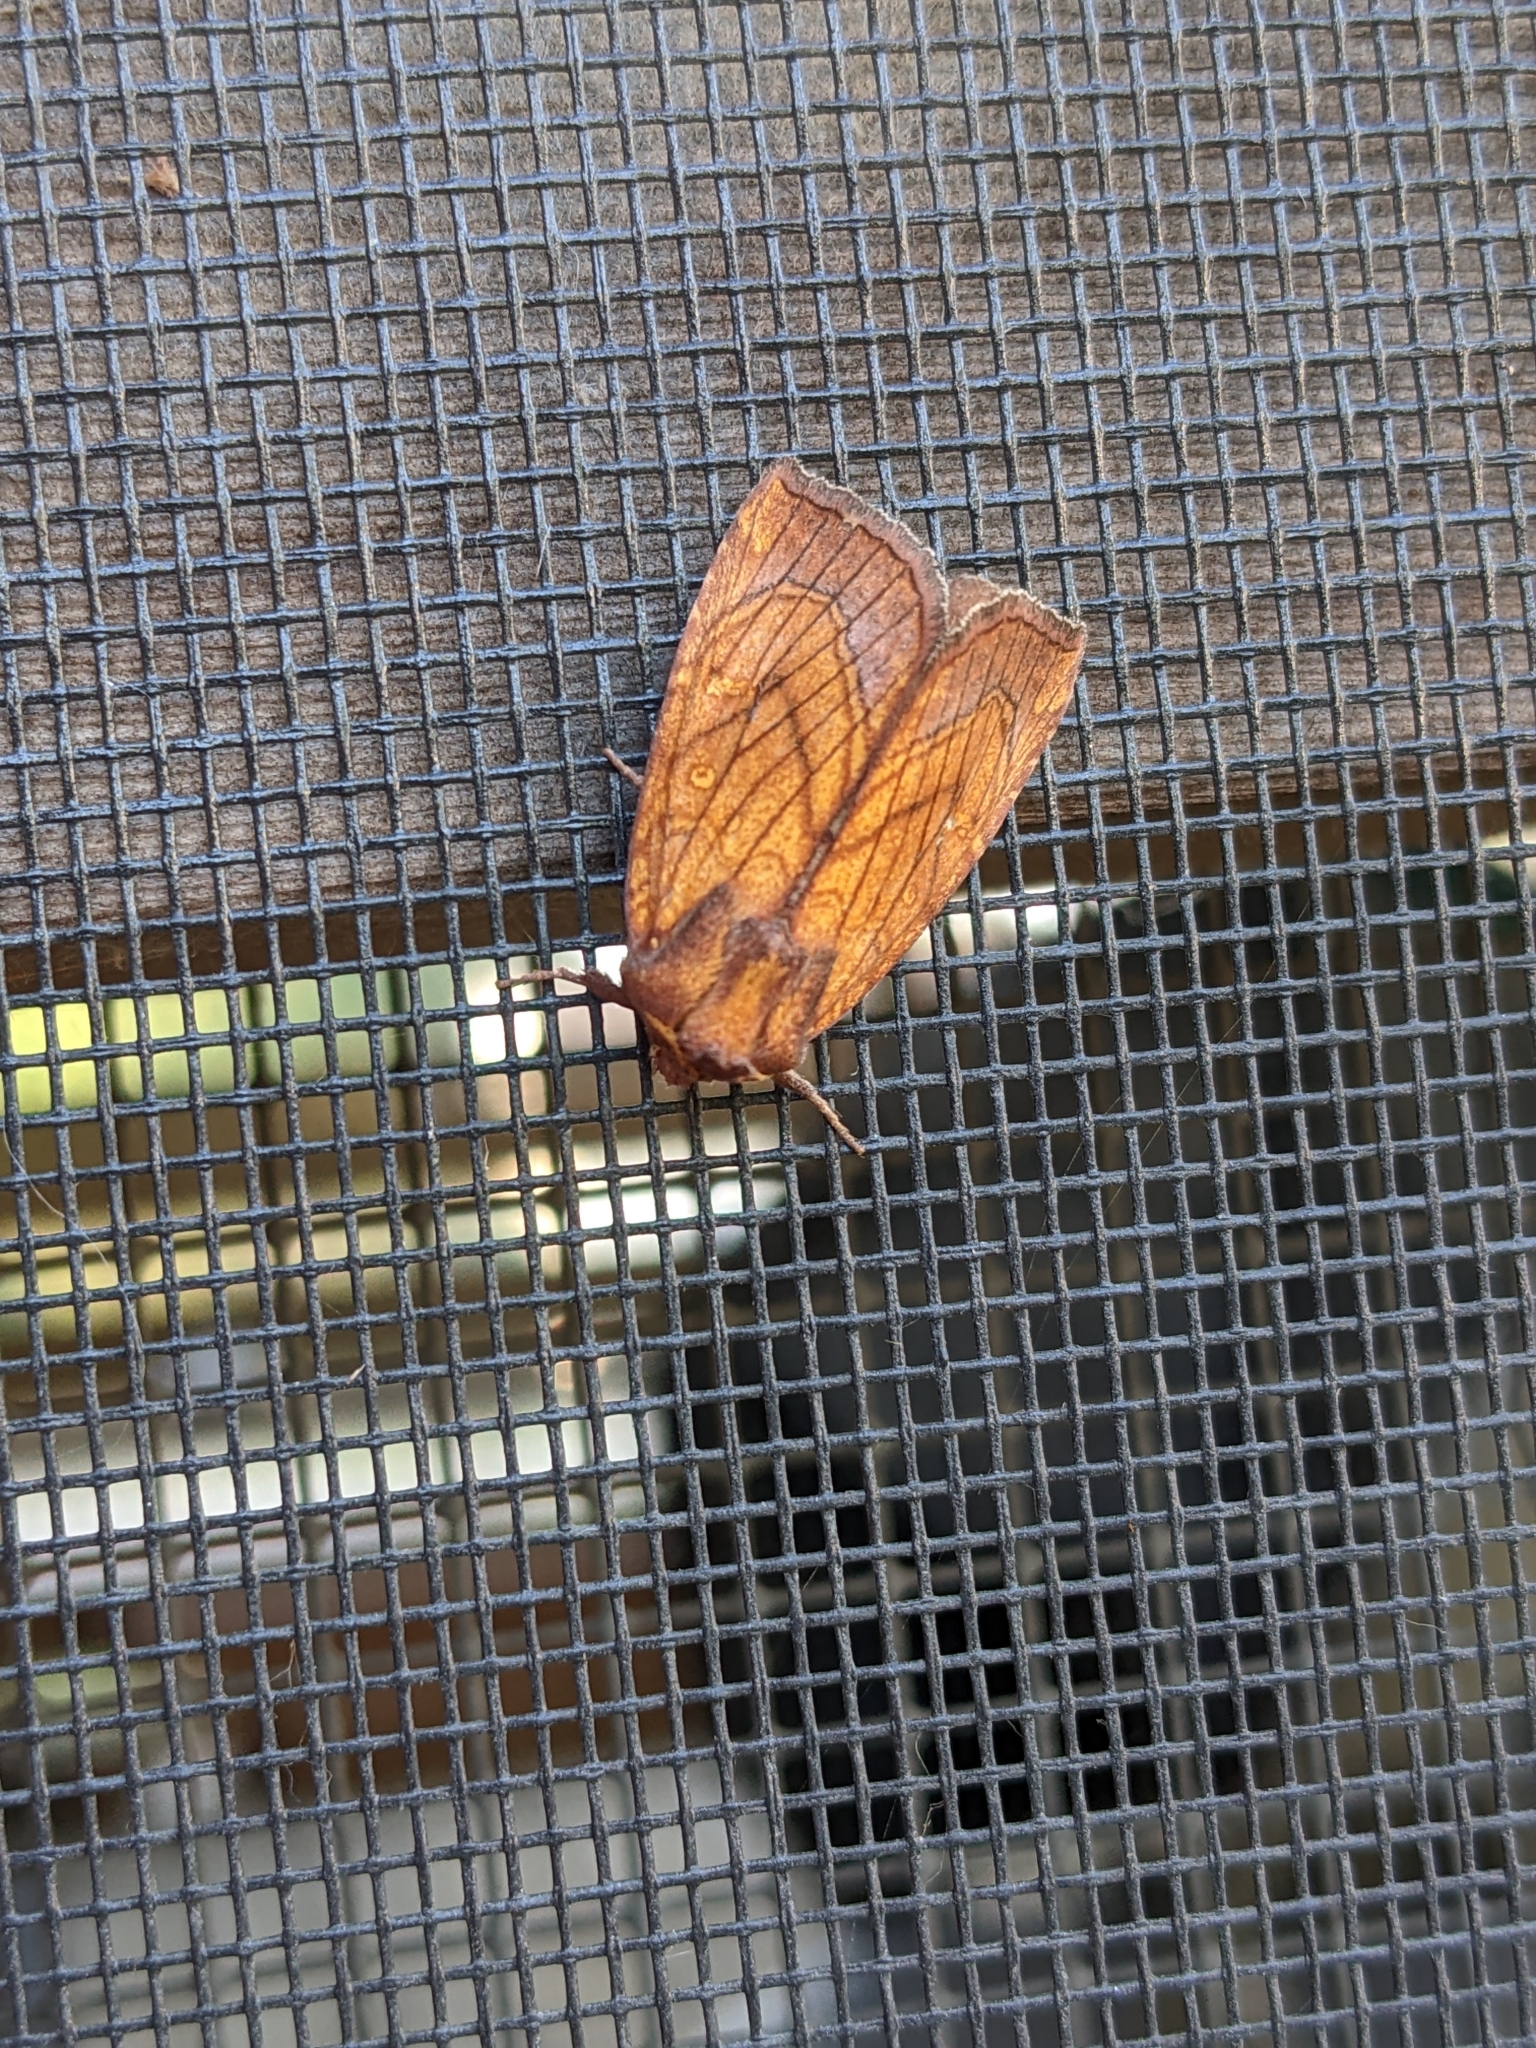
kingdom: Animalia
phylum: Arthropoda
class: Insecta
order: Lepidoptera
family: Noctuidae
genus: Papaipema
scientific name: Papaipema inquaesita
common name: Sensitive fern borer moth
